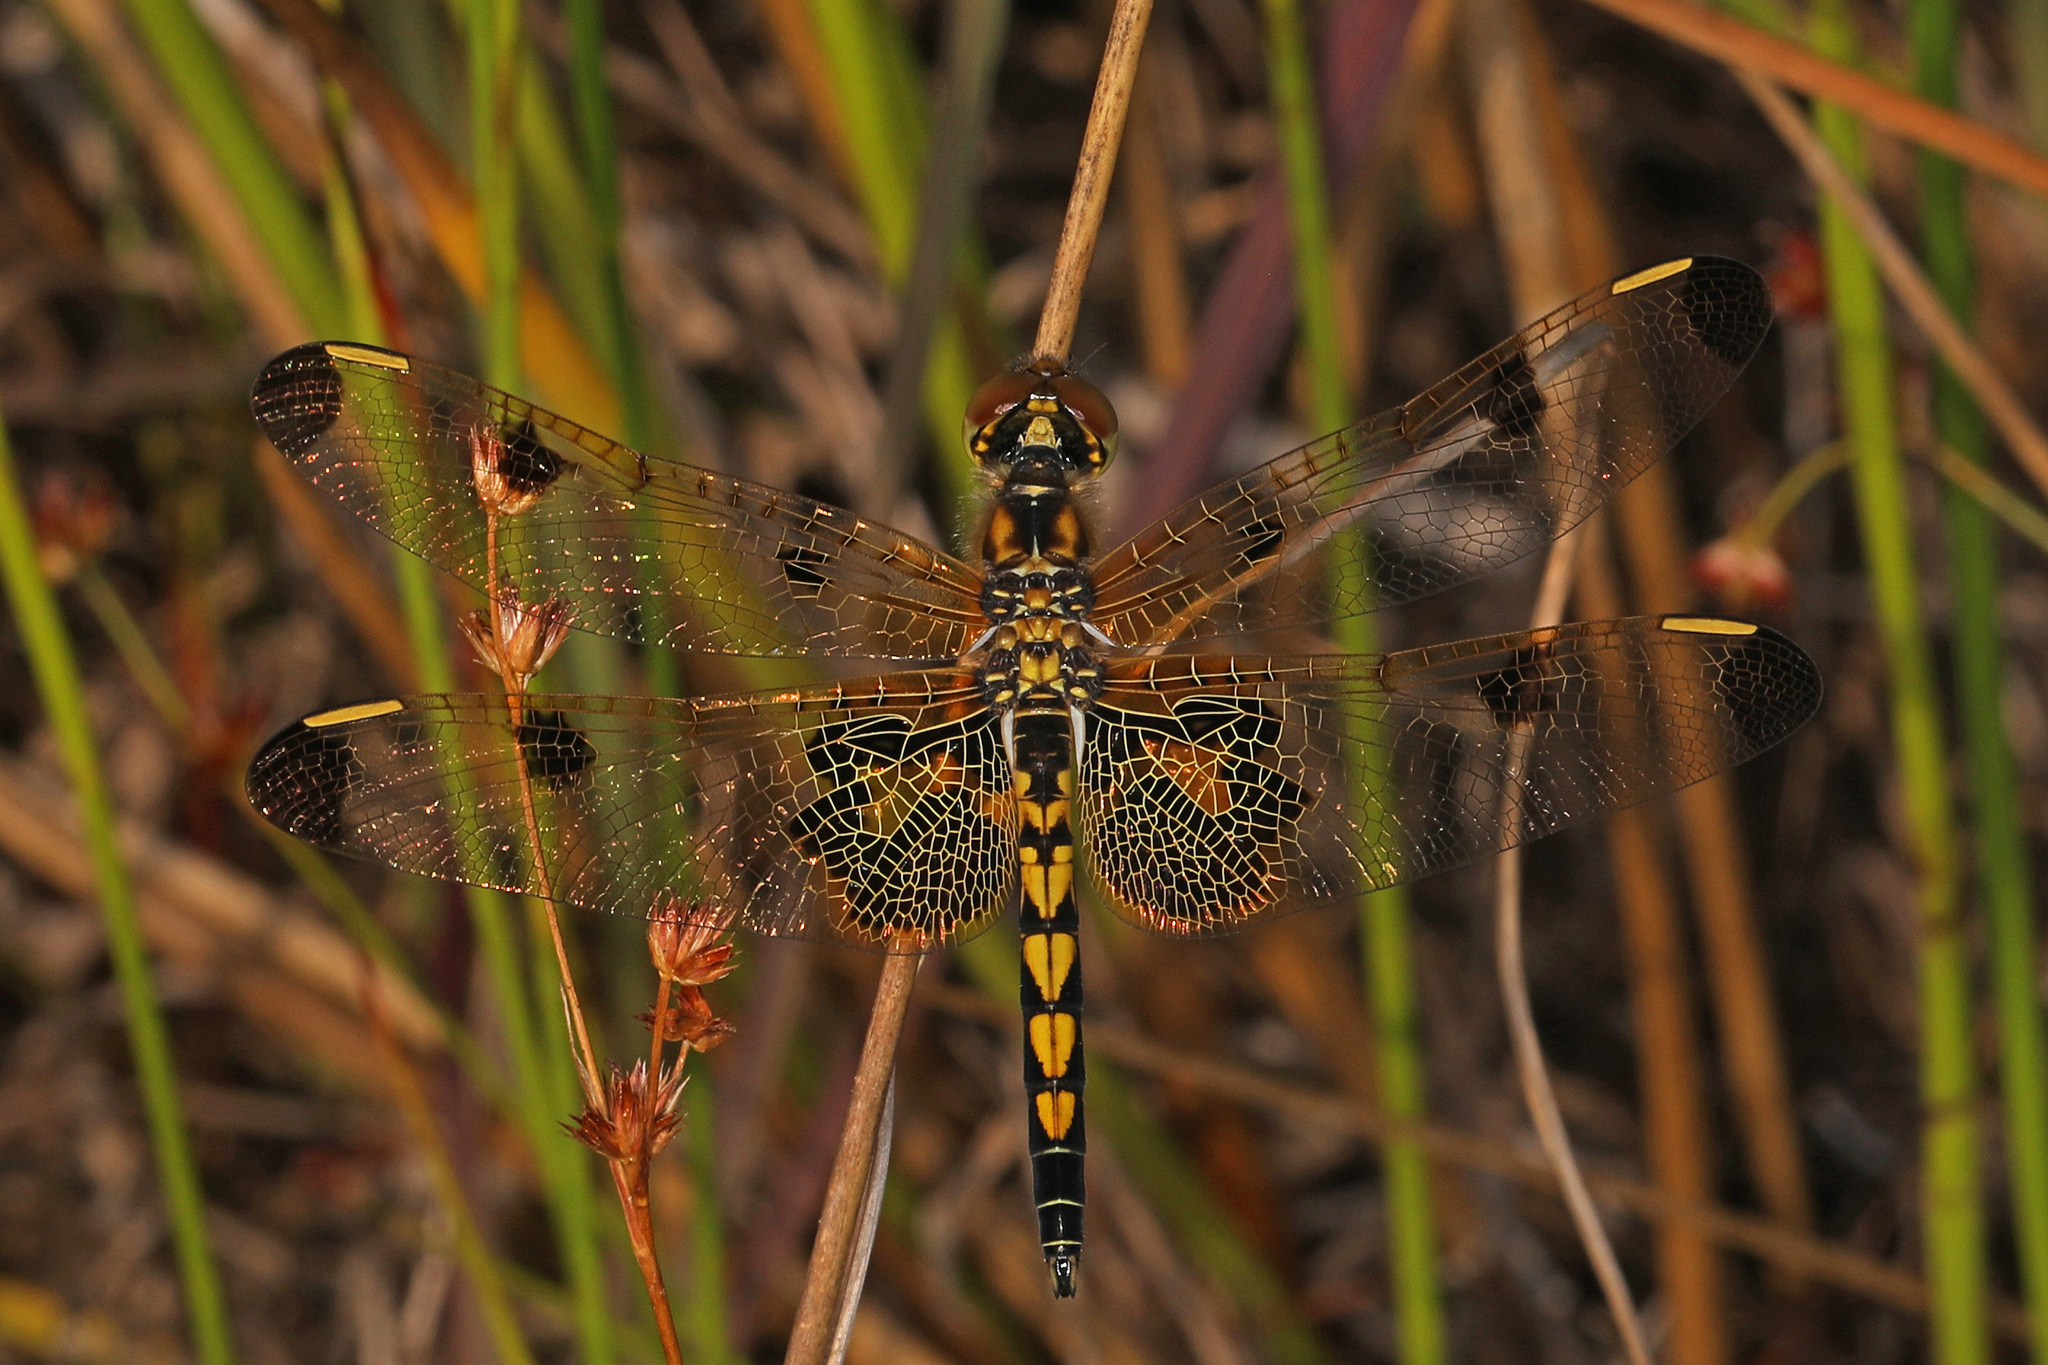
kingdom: Animalia
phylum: Arthropoda
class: Insecta
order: Odonata
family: Libellulidae
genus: Celithemis
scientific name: Celithemis elisa
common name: Calico pennant
